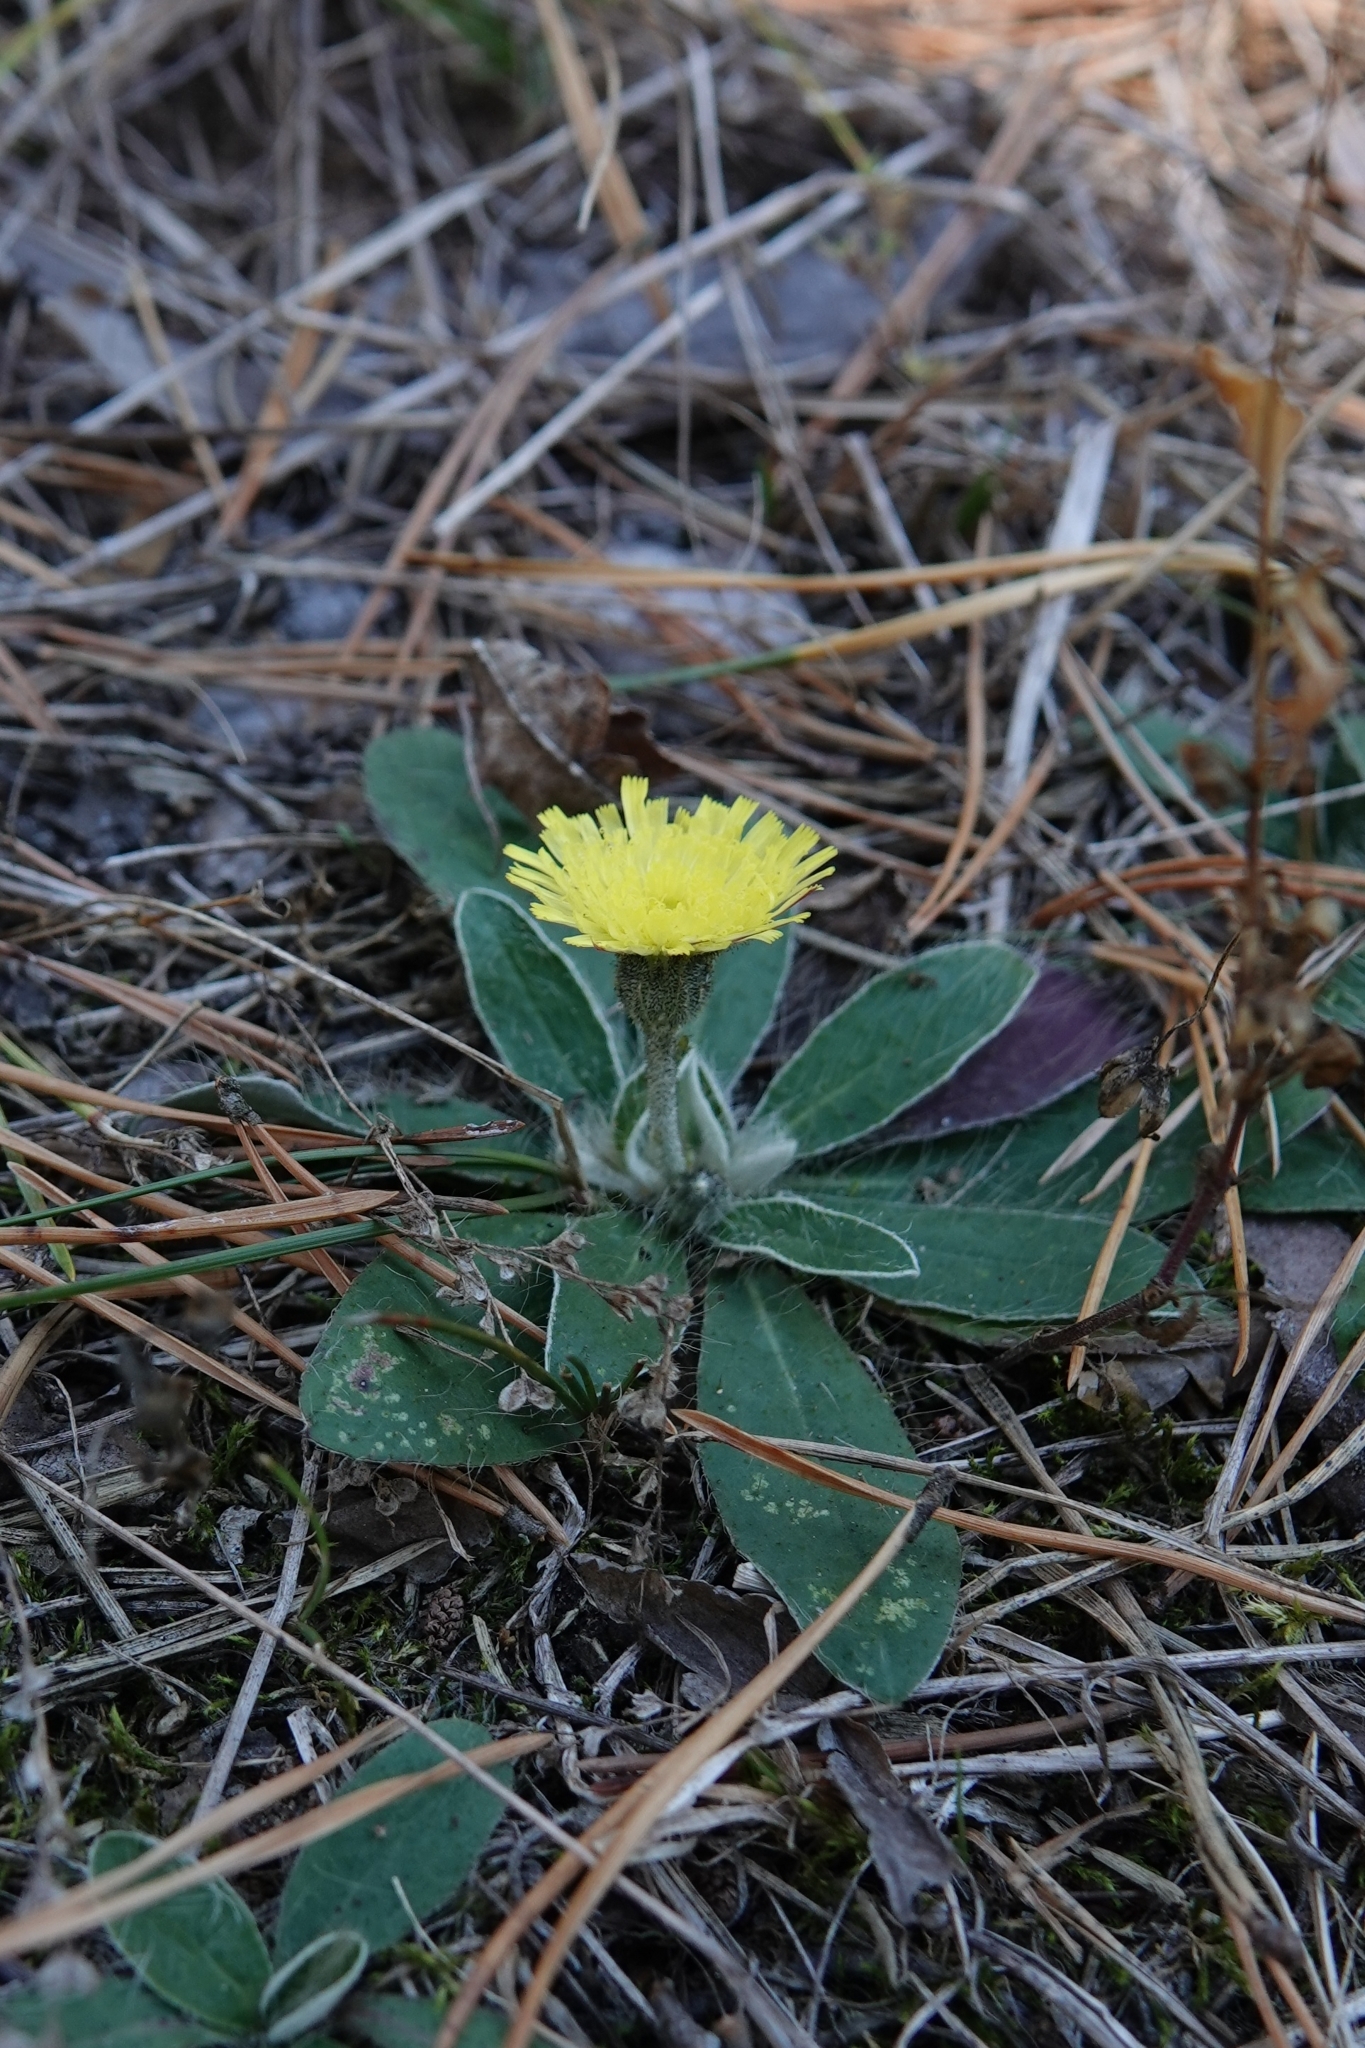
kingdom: Plantae
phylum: Tracheophyta
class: Magnoliopsida
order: Asterales
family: Asteraceae
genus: Pilosella
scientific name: Pilosella officinarum
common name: Mouse-ear hawkweed
